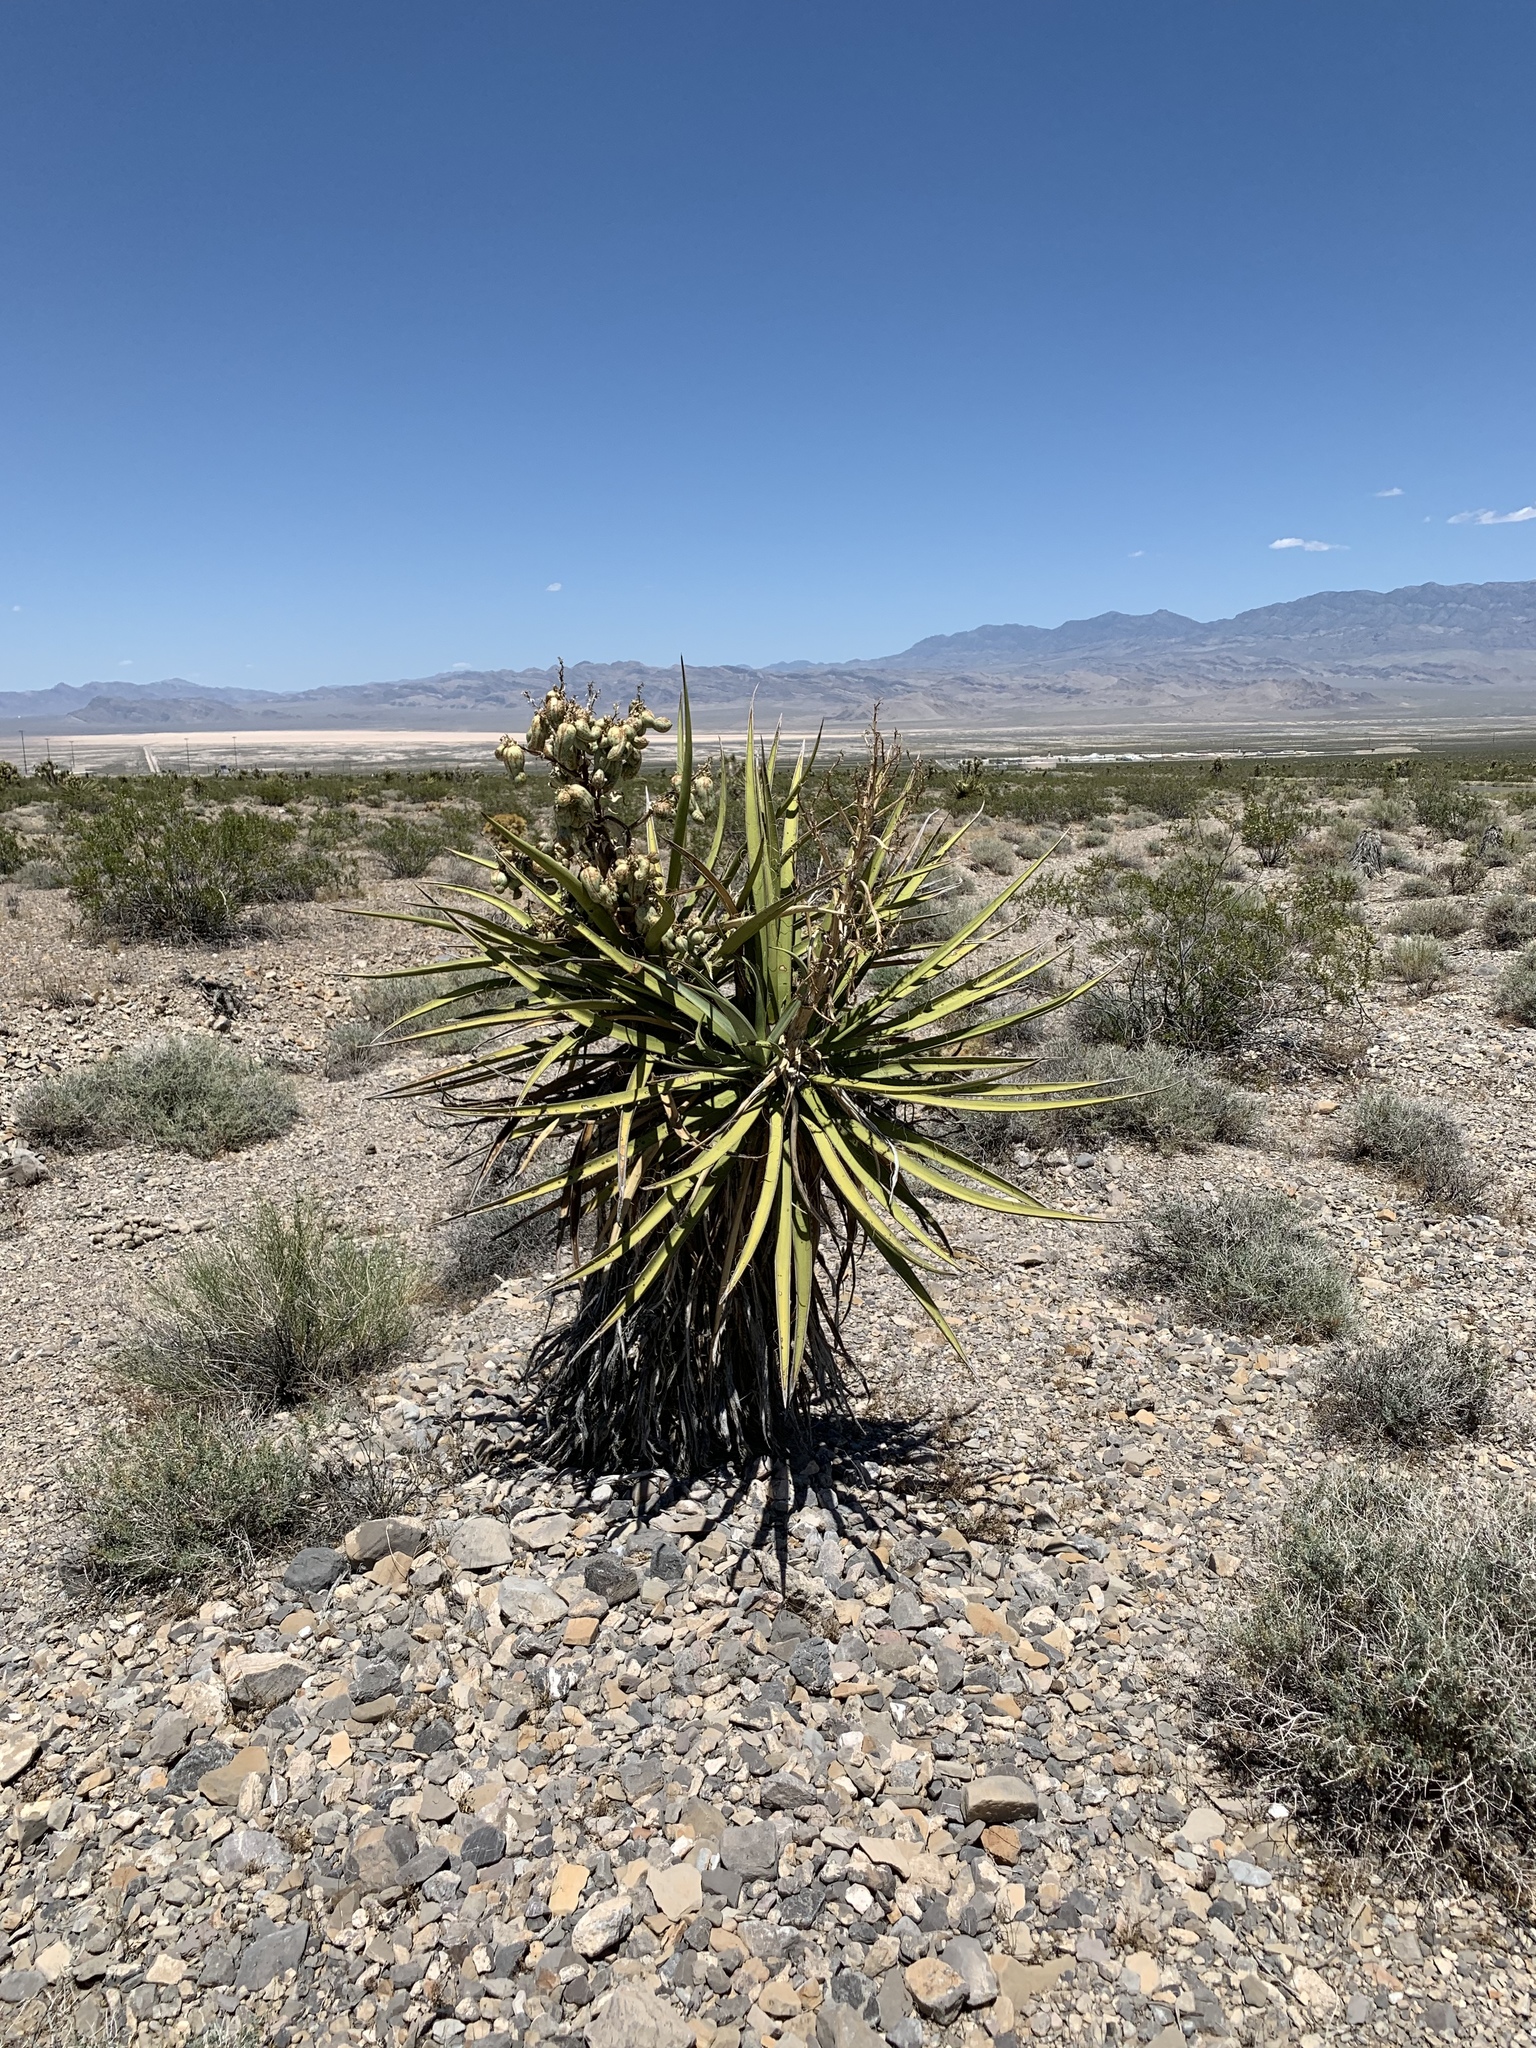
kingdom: Plantae
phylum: Tracheophyta
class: Liliopsida
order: Asparagales
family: Asparagaceae
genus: Yucca
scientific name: Yucca schidigera
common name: Mojave yucca
